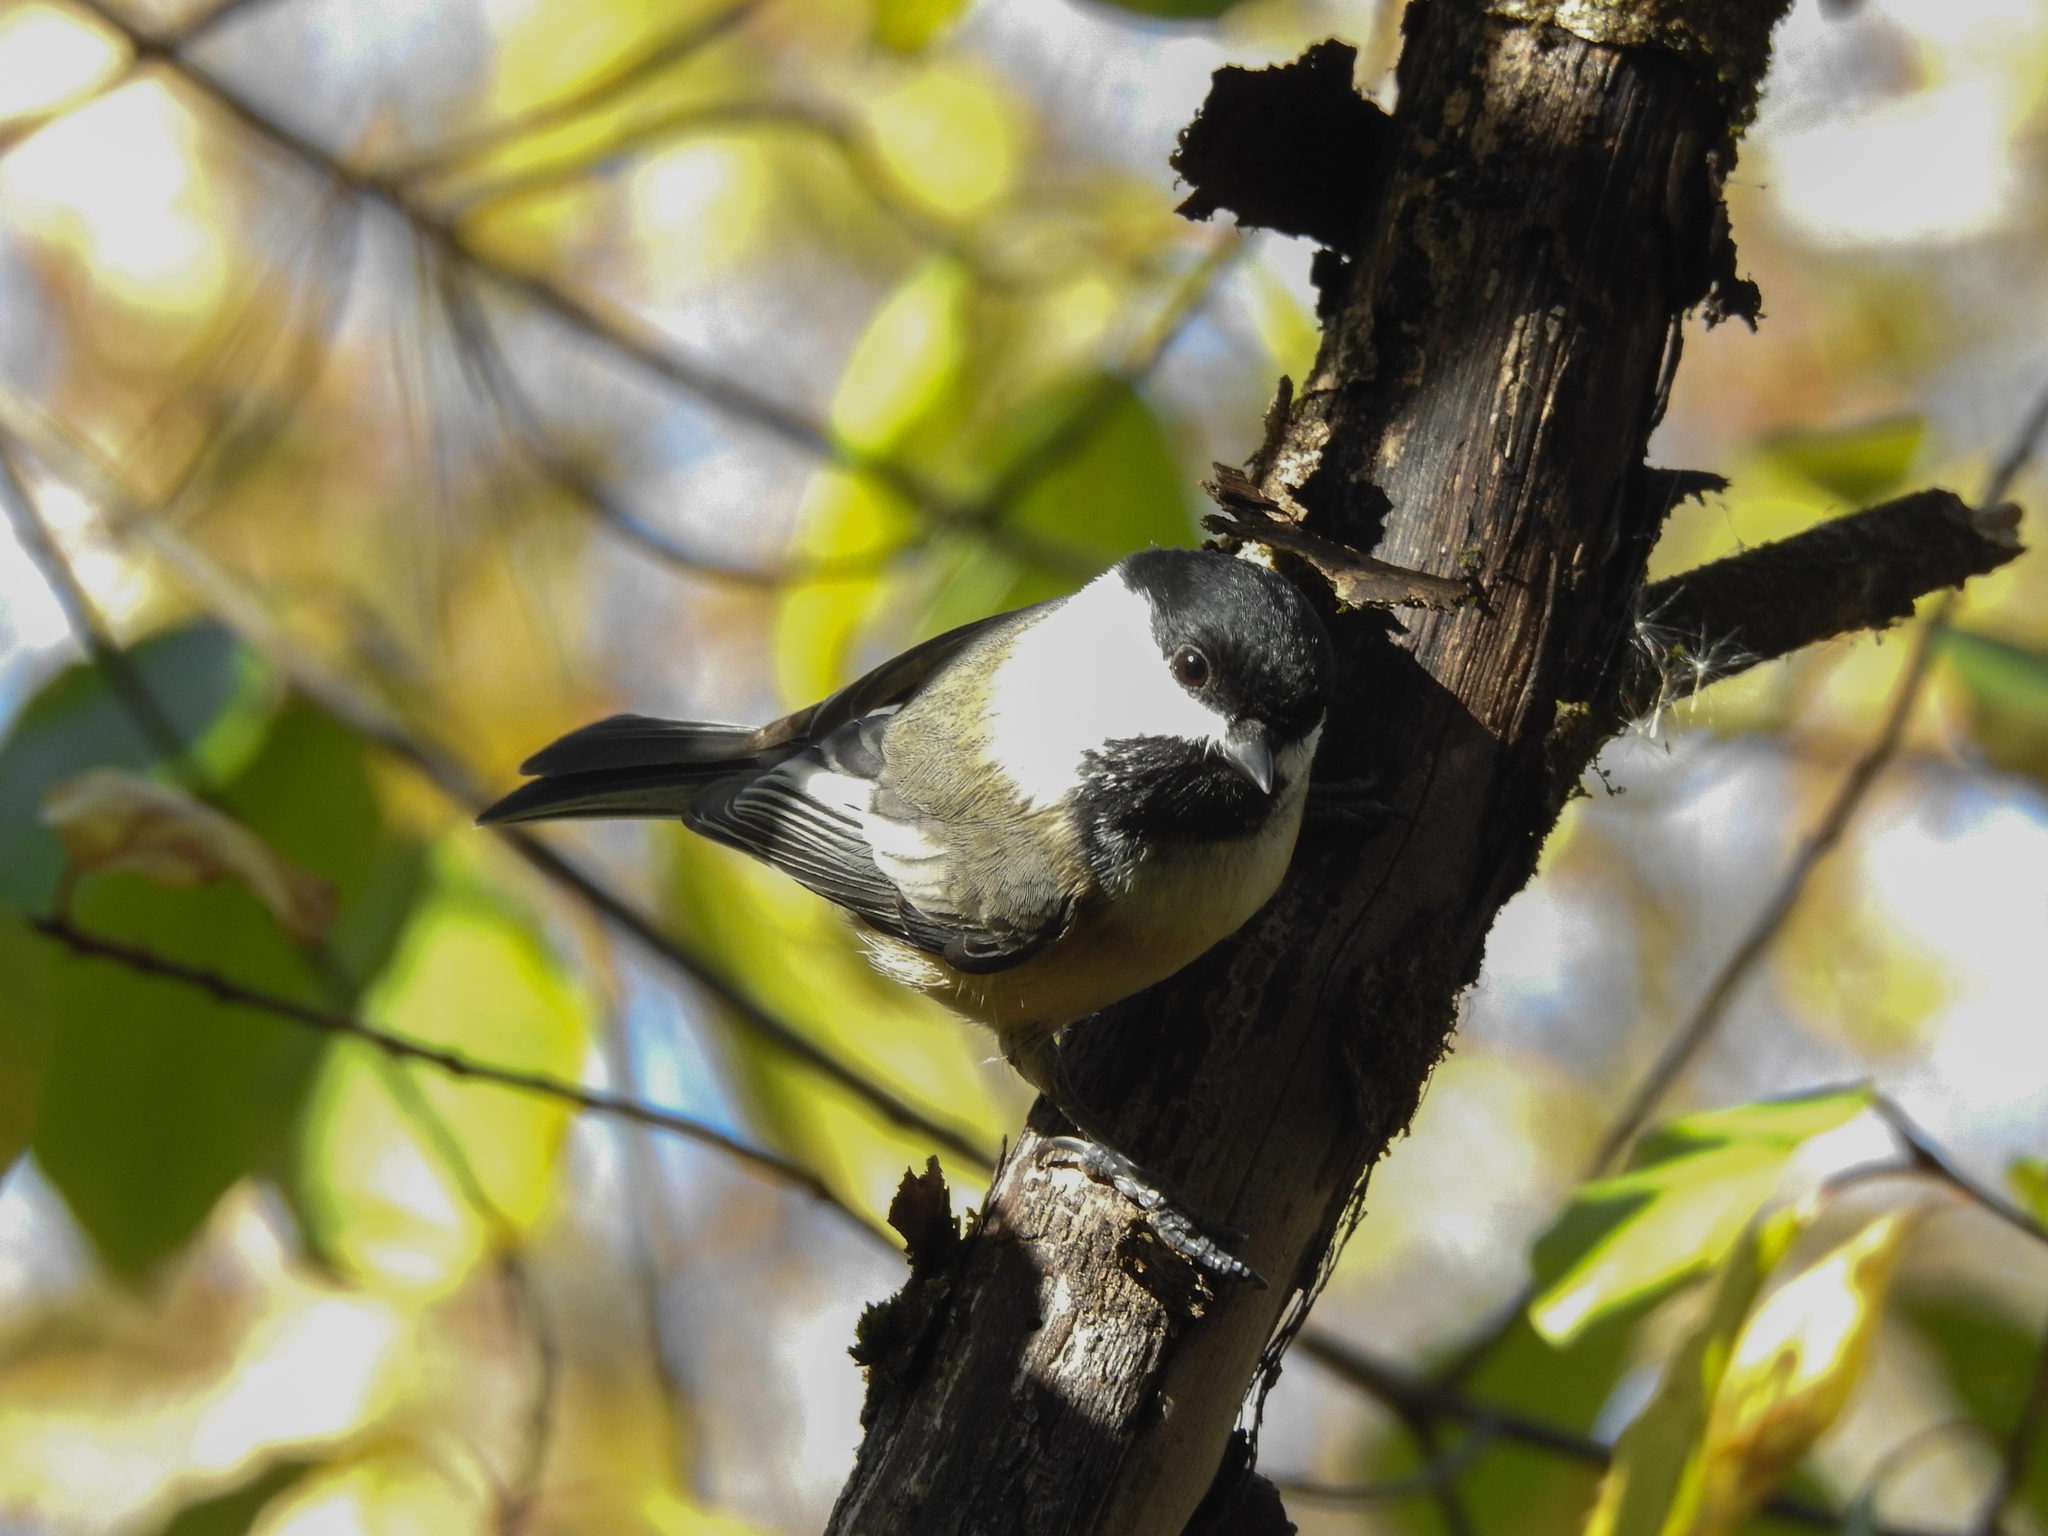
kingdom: Animalia
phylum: Chordata
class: Aves
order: Passeriformes
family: Paridae
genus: Poecile
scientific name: Poecile atricapillus
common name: Black-capped chickadee
